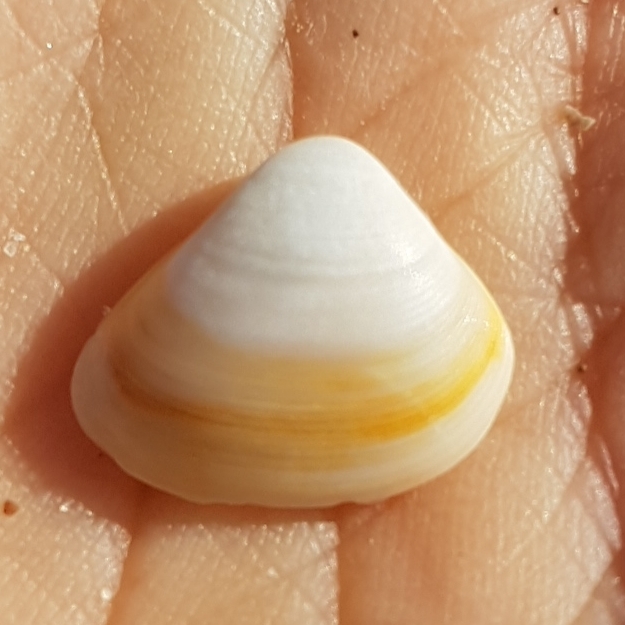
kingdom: Animalia
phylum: Mollusca
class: Bivalvia
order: Venerida
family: Mactridae
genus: Spisula
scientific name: Spisula subtruncata
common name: Cut trough shell
